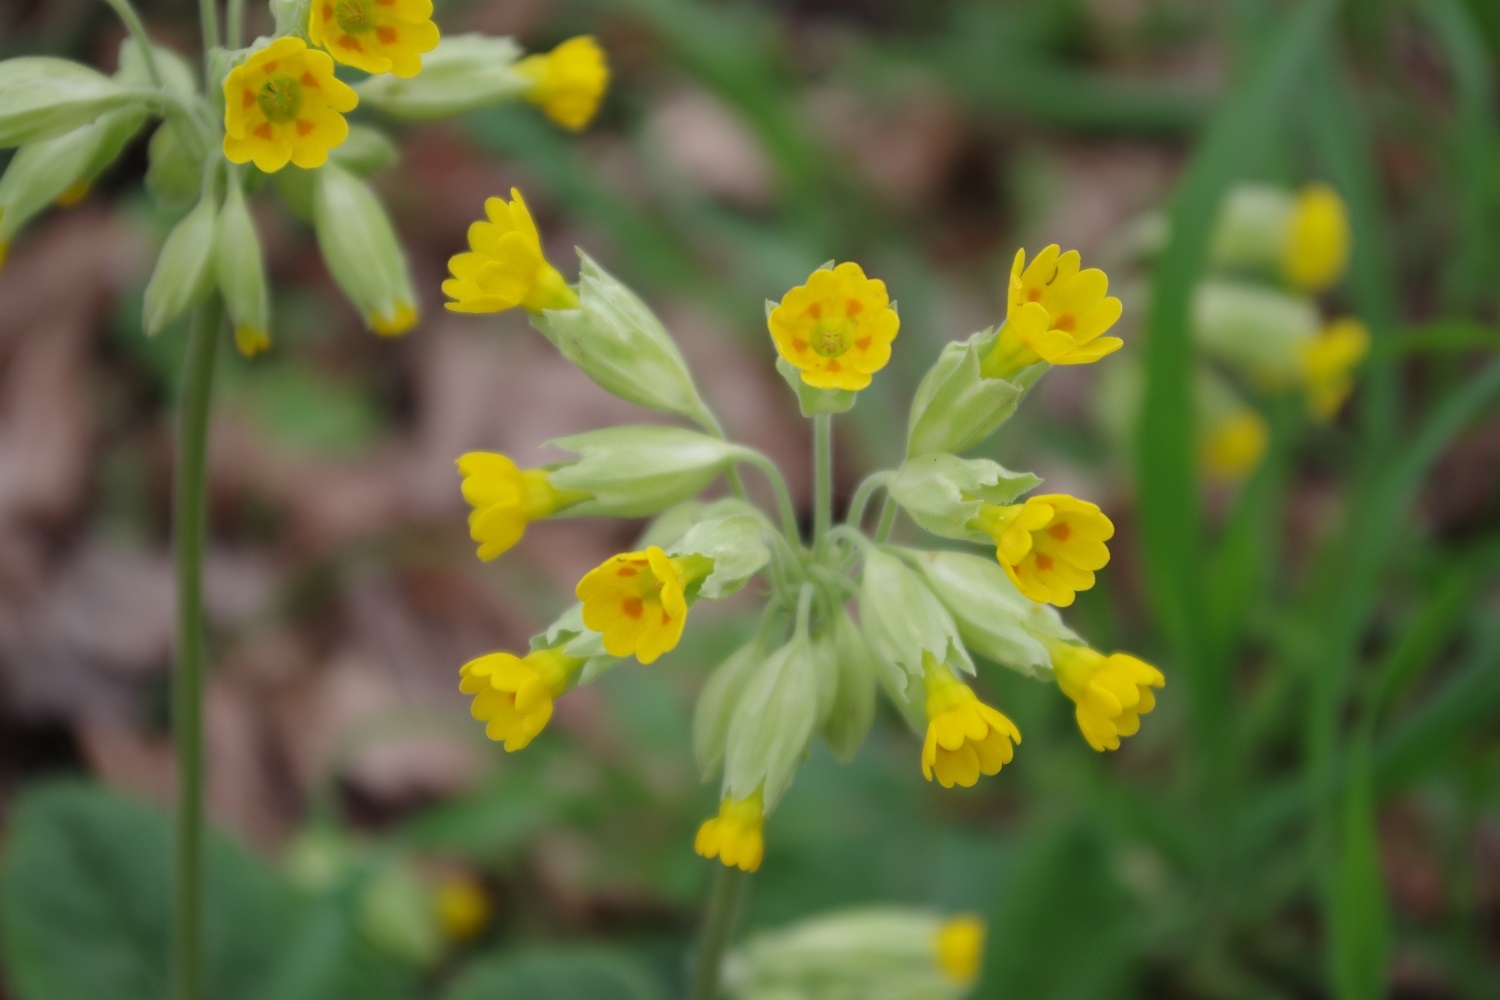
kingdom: Plantae
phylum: Tracheophyta
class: Magnoliopsida
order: Ericales
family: Primulaceae
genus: Primula
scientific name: Primula veris
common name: Cowslip
